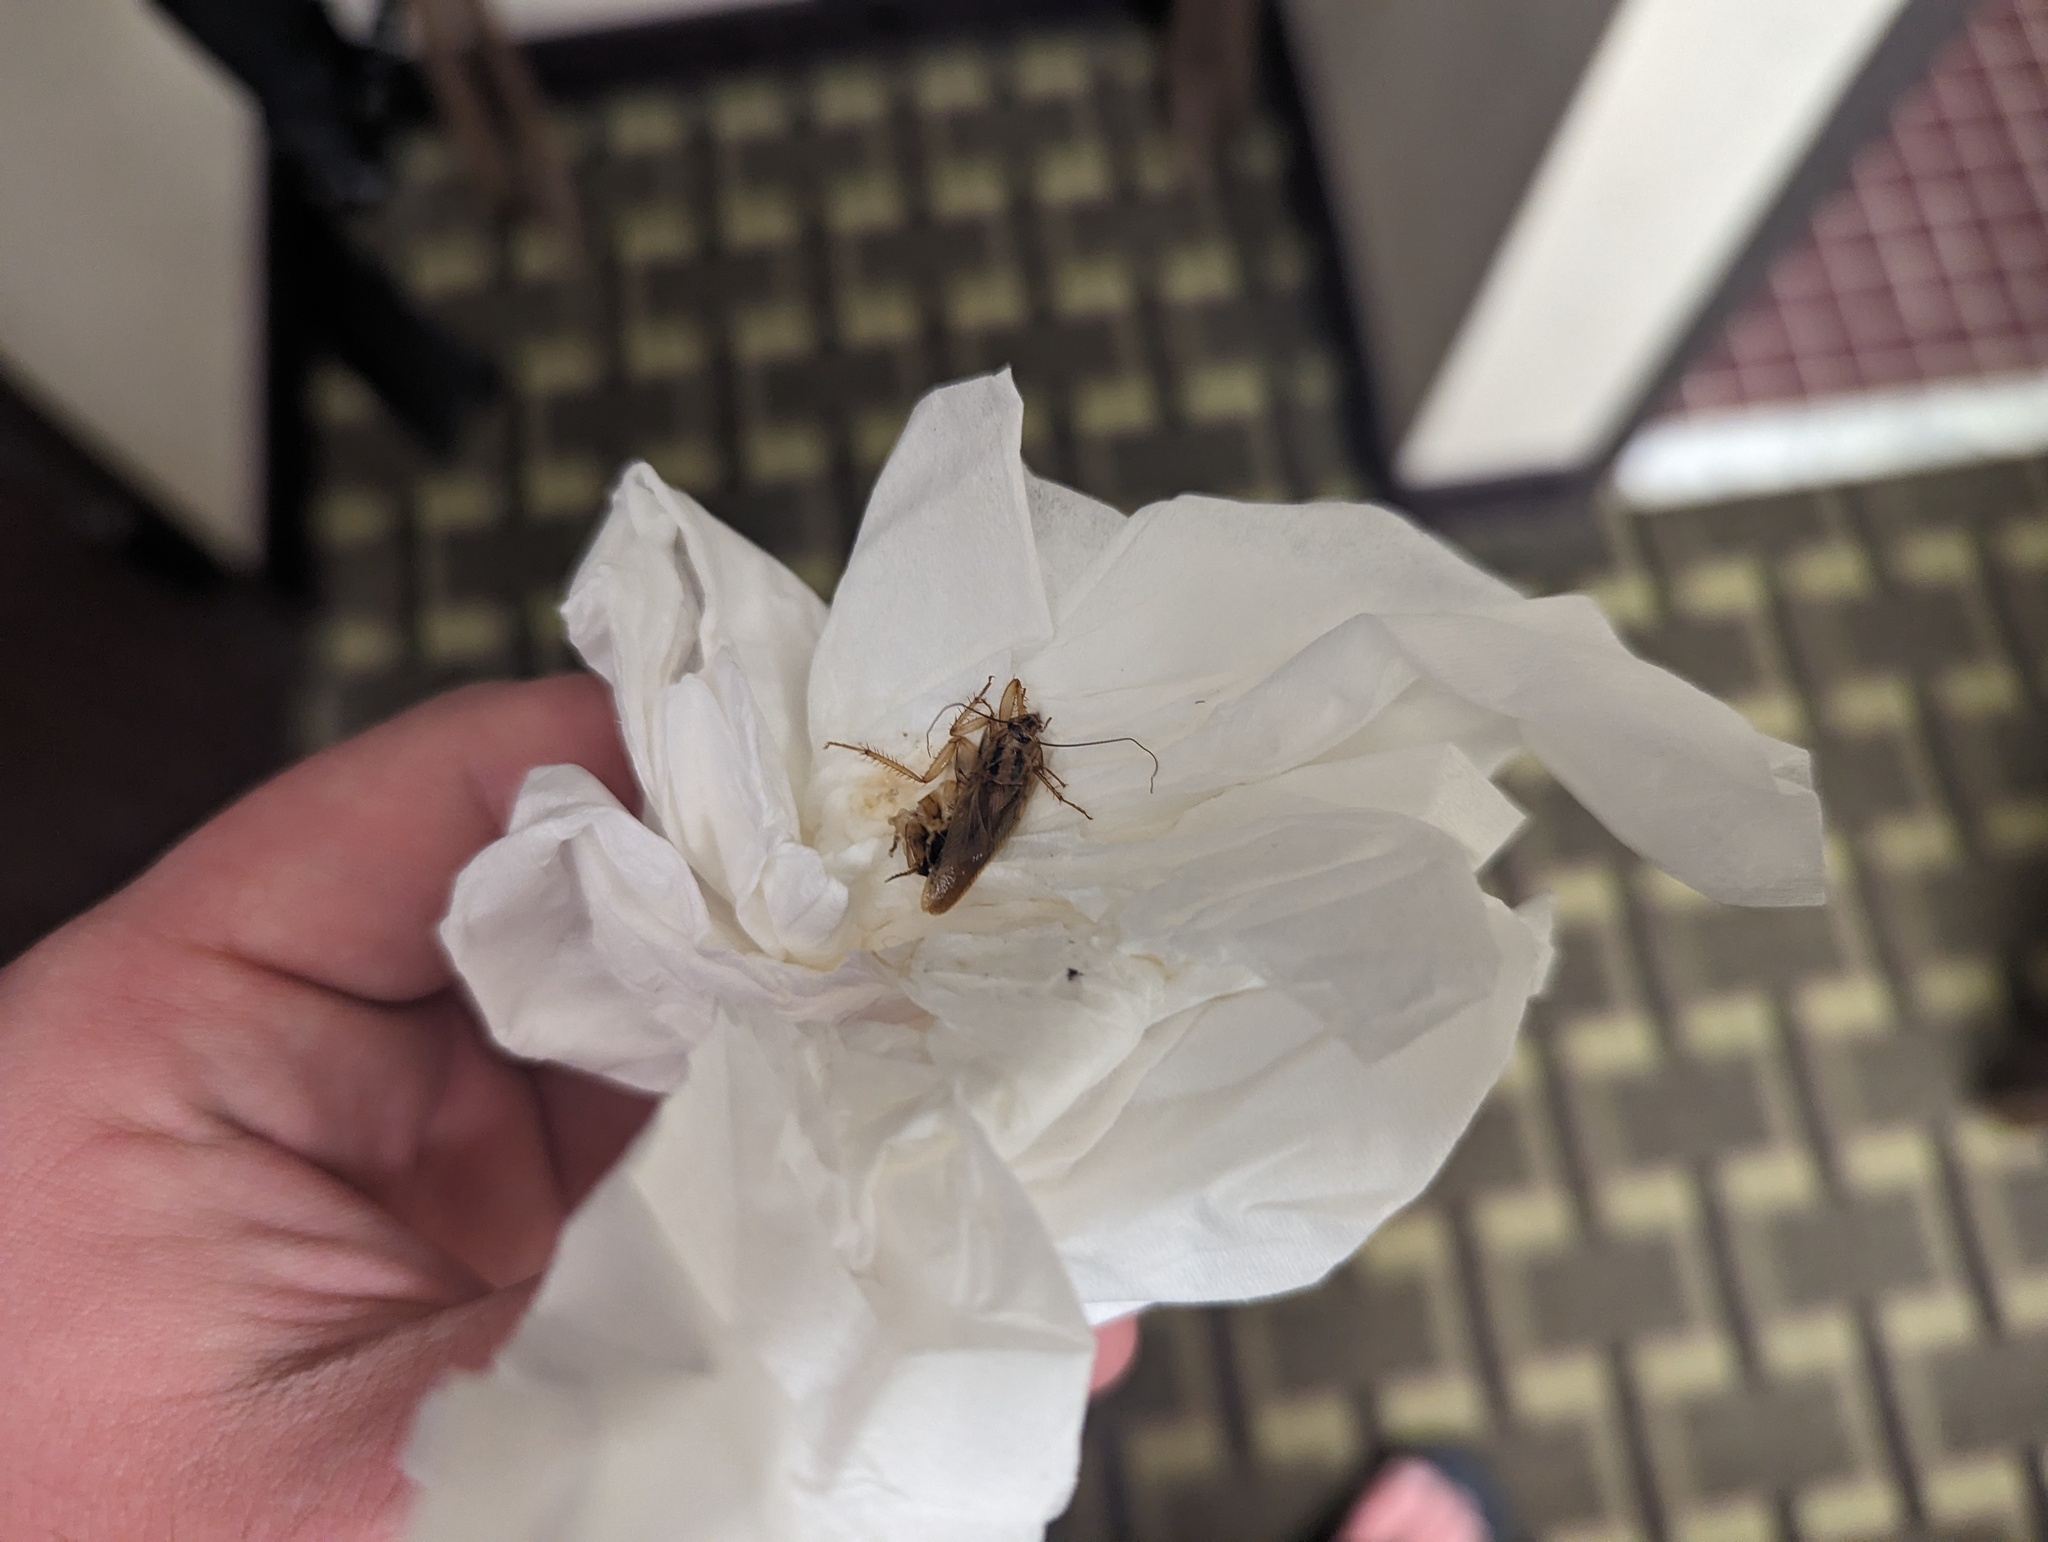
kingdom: Animalia
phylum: Arthropoda
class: Insecta
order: Blattodea
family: Ectobiidae
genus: Blattella
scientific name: Blattella germanica
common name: German cockroach
